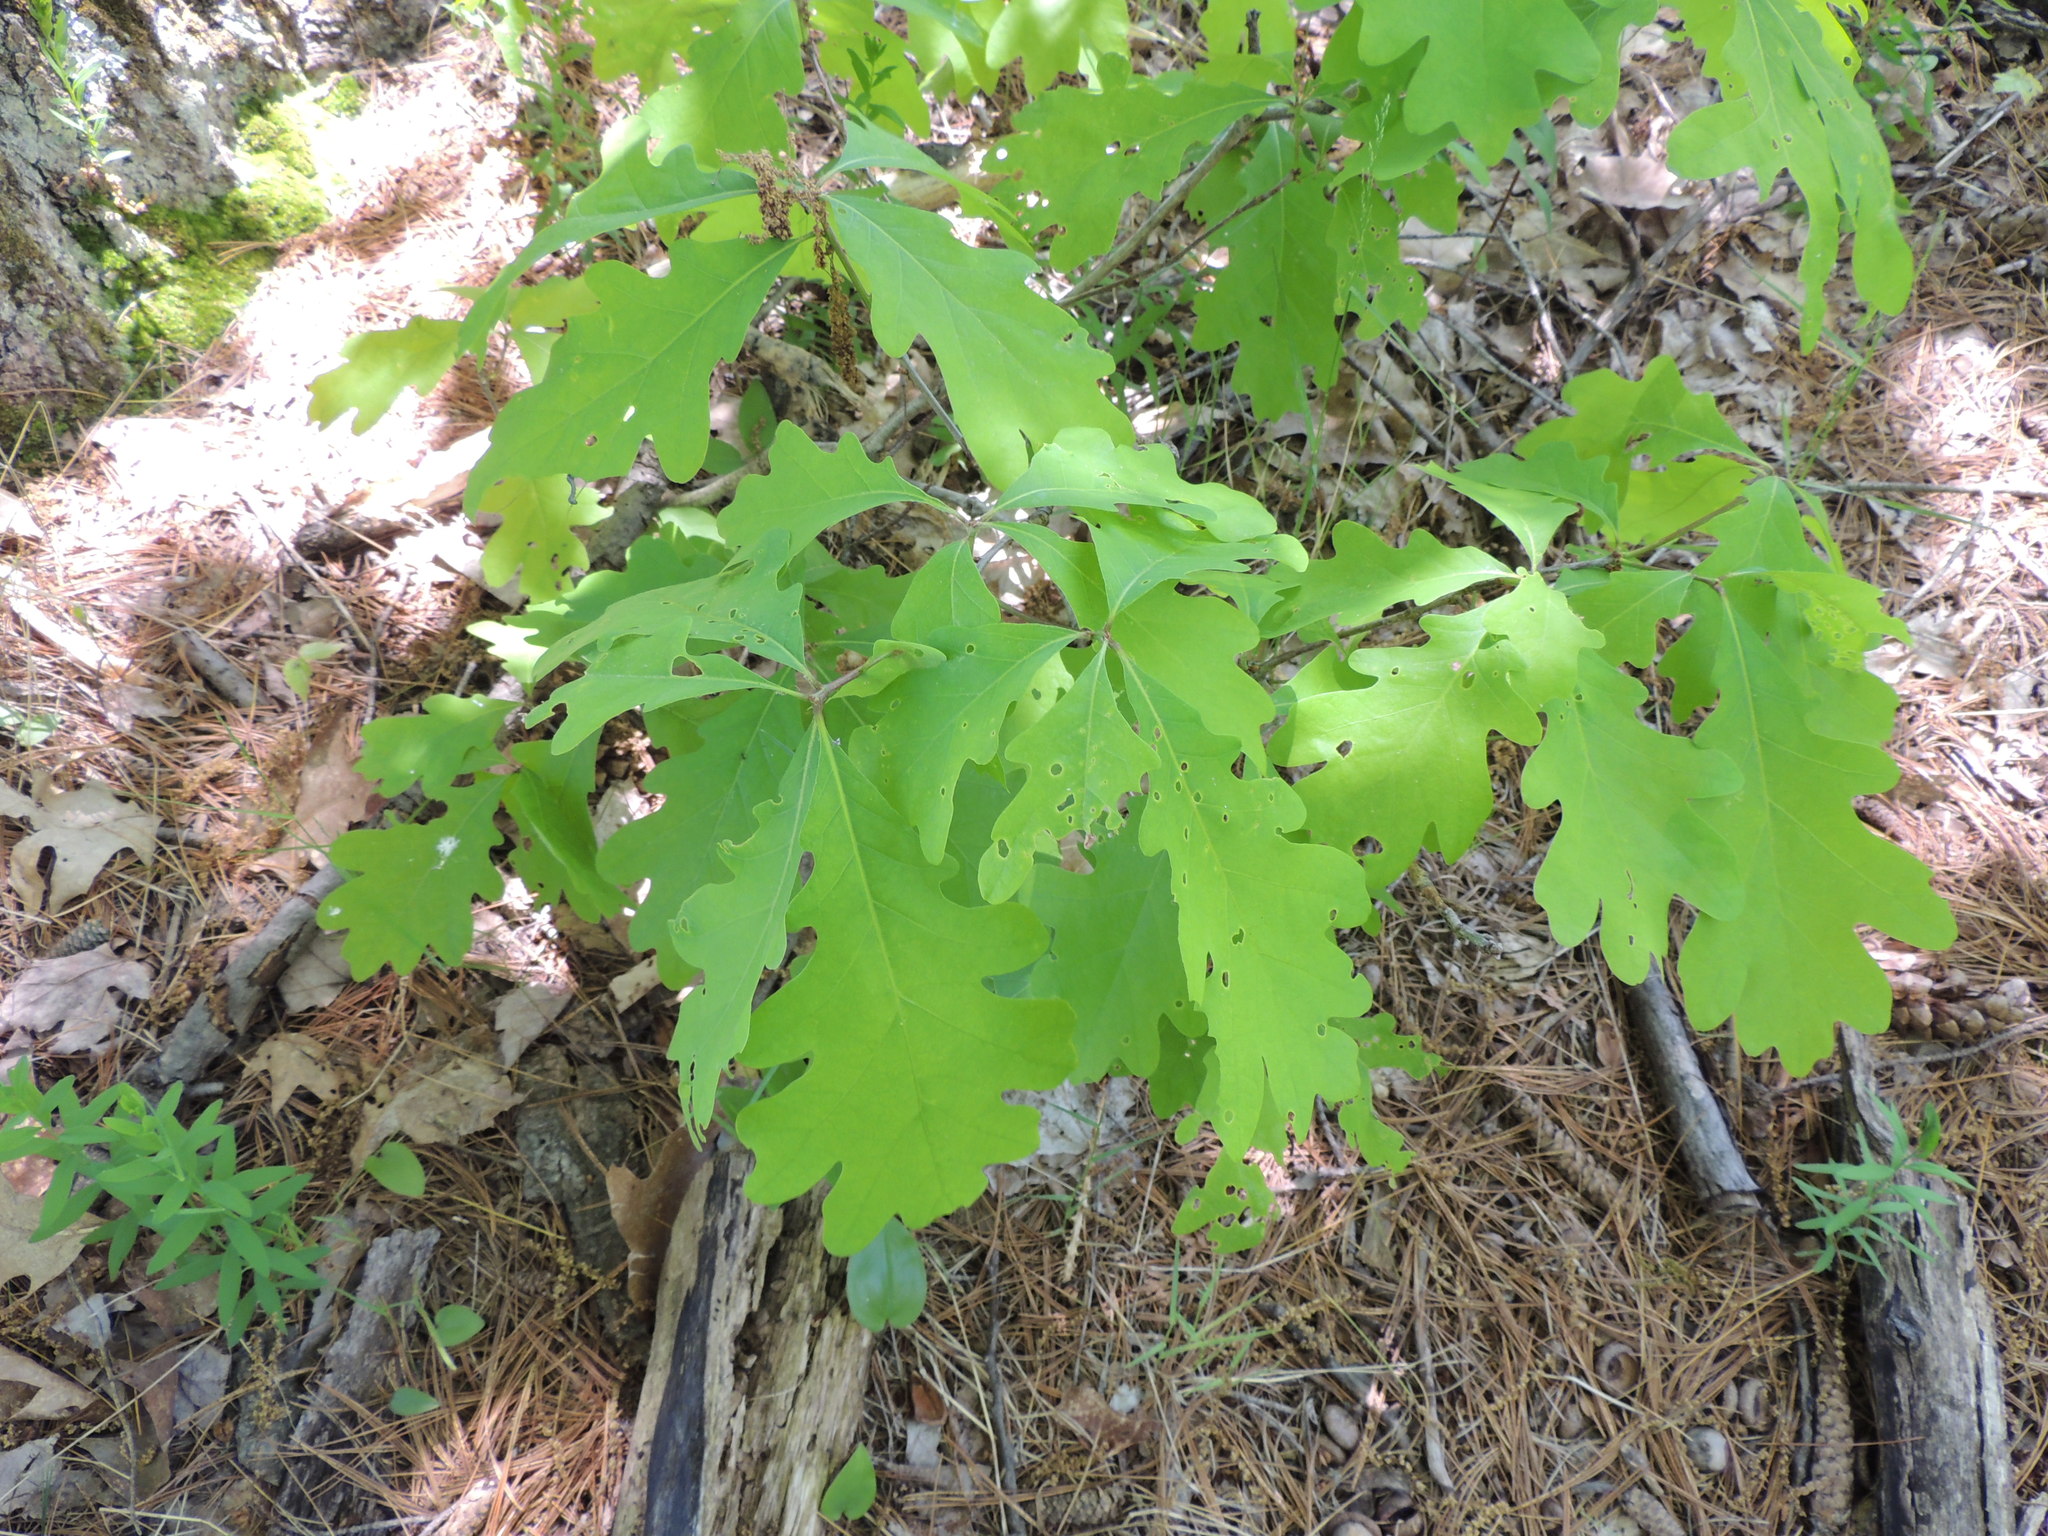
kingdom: Plantae
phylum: Tracheophyta
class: Magnoliopsida
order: Fagales
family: Fagaceae
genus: Quercus
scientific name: Quercus alba
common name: White oak
